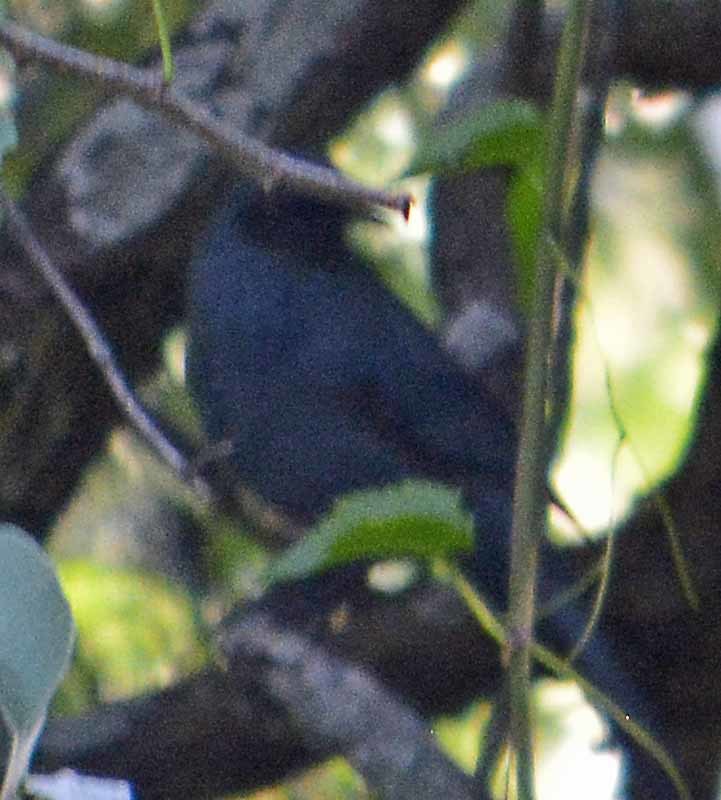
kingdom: Animalia
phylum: Chordata
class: Aves
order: Passeriformes
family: Mimidae
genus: Melanotis
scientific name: Melanotis caerulescens
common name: Blue mockingbird
